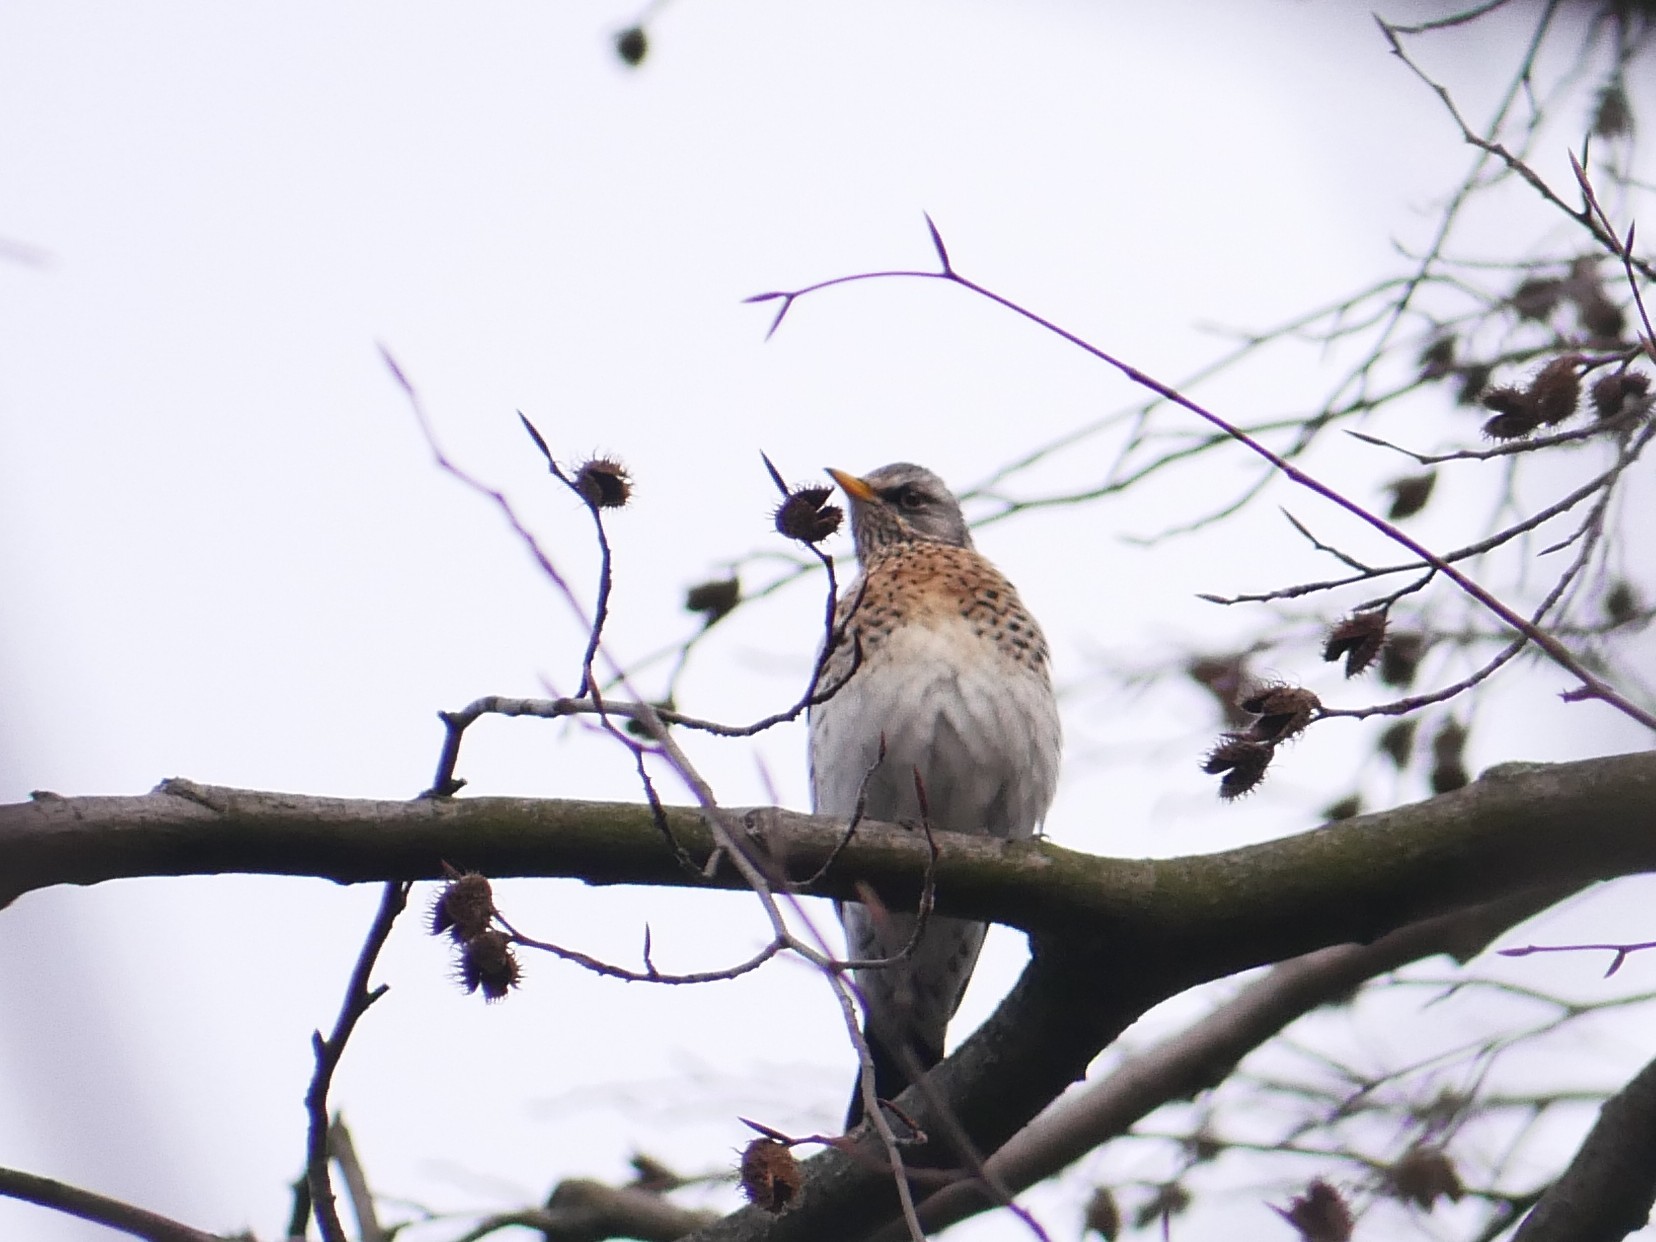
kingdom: Animalia
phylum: Chordata
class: Aves
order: Passeriformes
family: Turdidae
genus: Turdus
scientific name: Turdus pilaris
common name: Fieldfare
